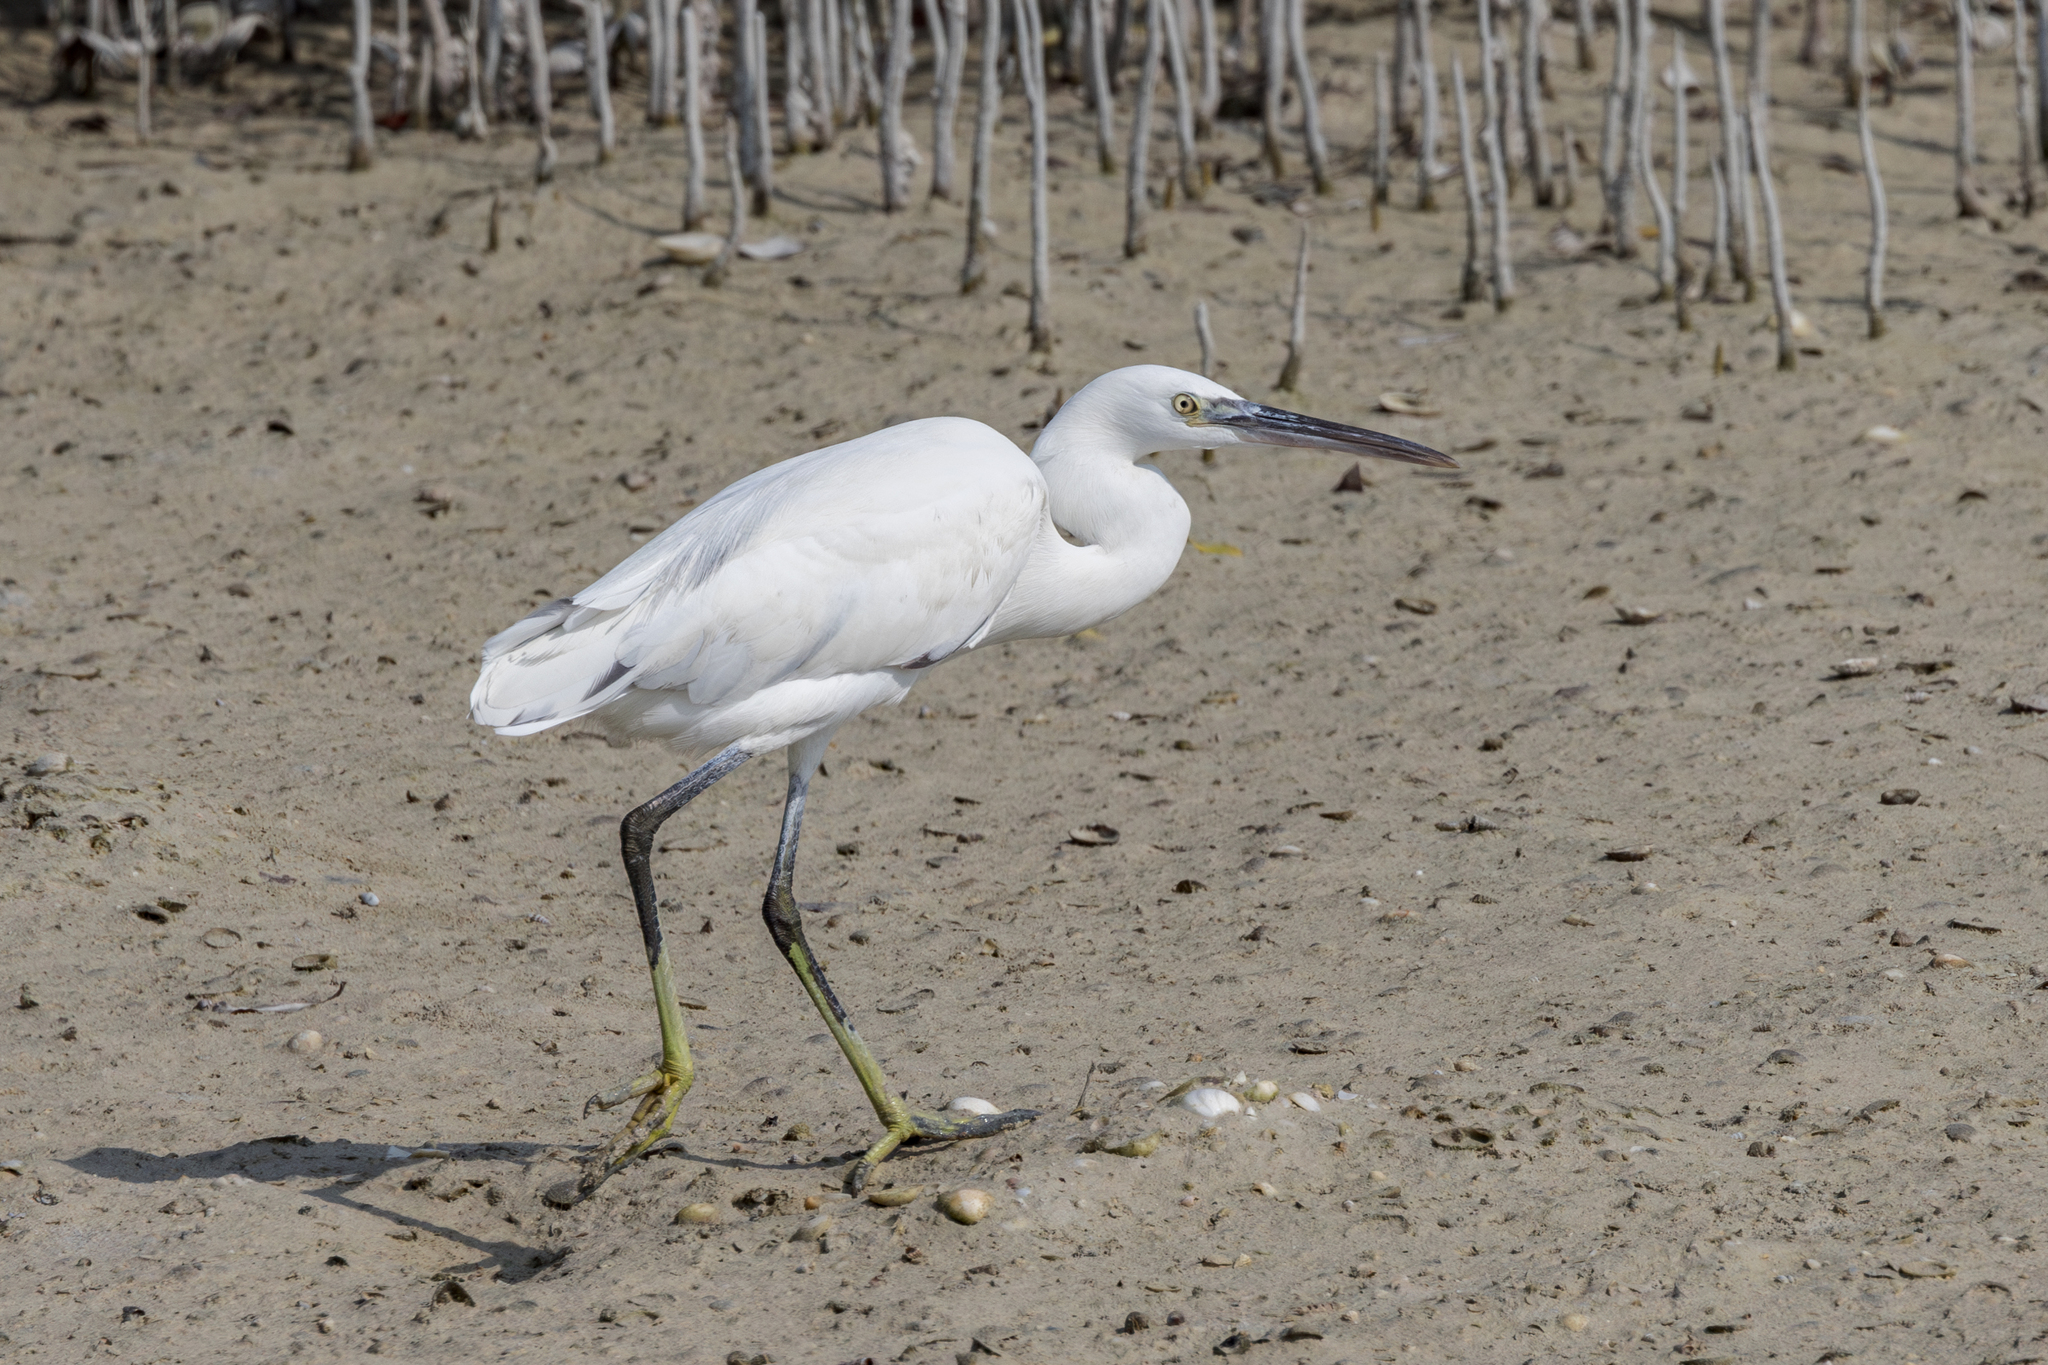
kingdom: Animalia
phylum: Chordata
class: Aves
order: Pelecaniformes
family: Ardeidae
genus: Egretta
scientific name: Egretta gularis
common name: Western reef-heron
